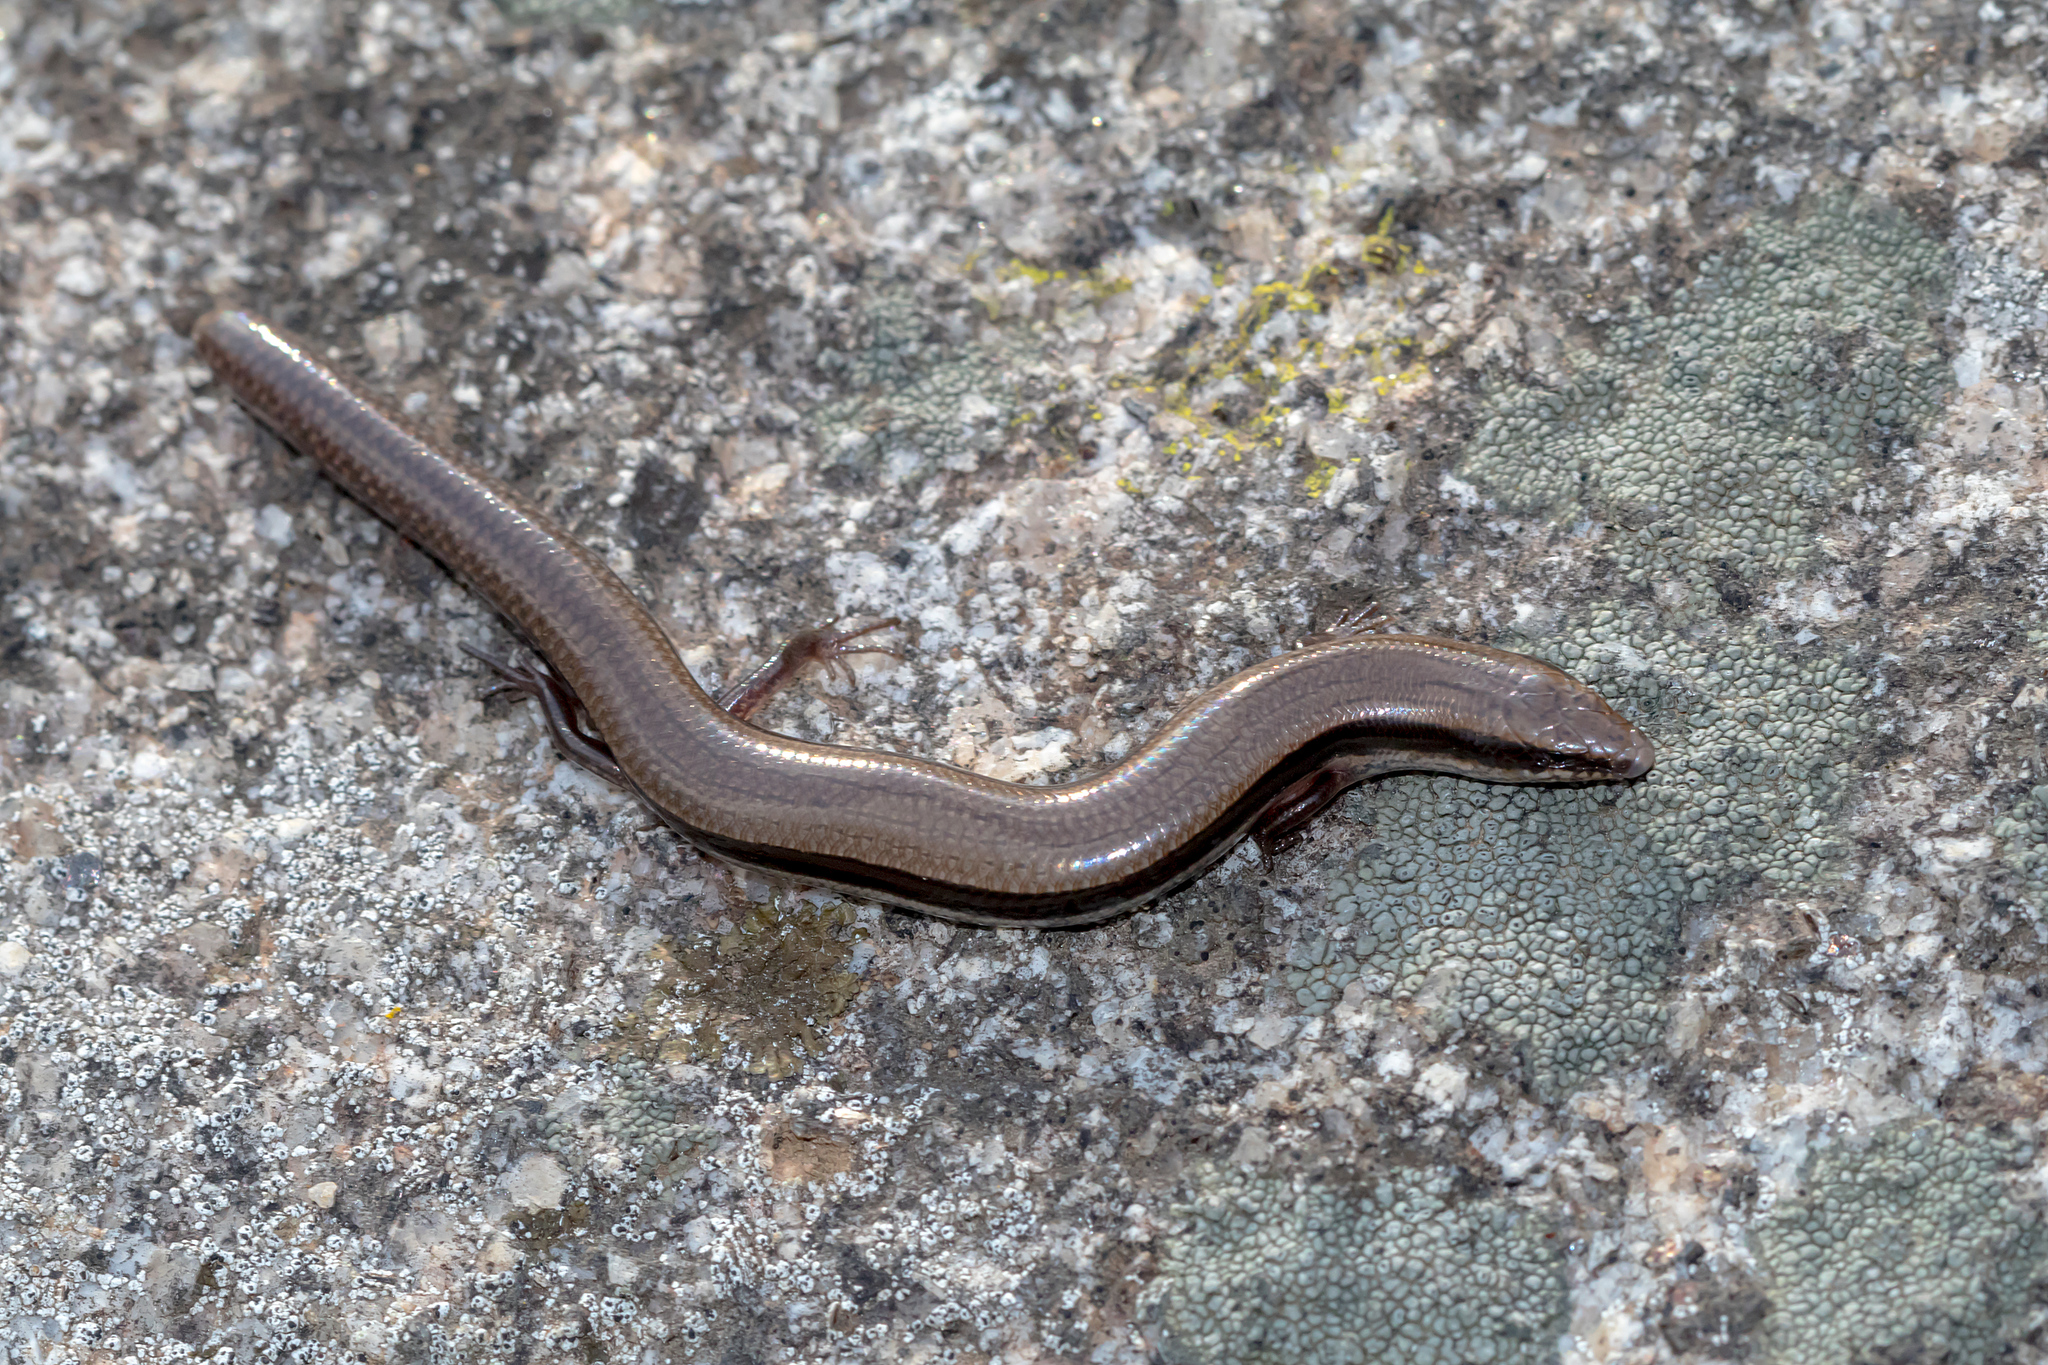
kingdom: Animalia
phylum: Chordata
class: Squamata
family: Scincidae
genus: Lerista
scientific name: Lerista bougainvillii
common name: South-eastern slider
